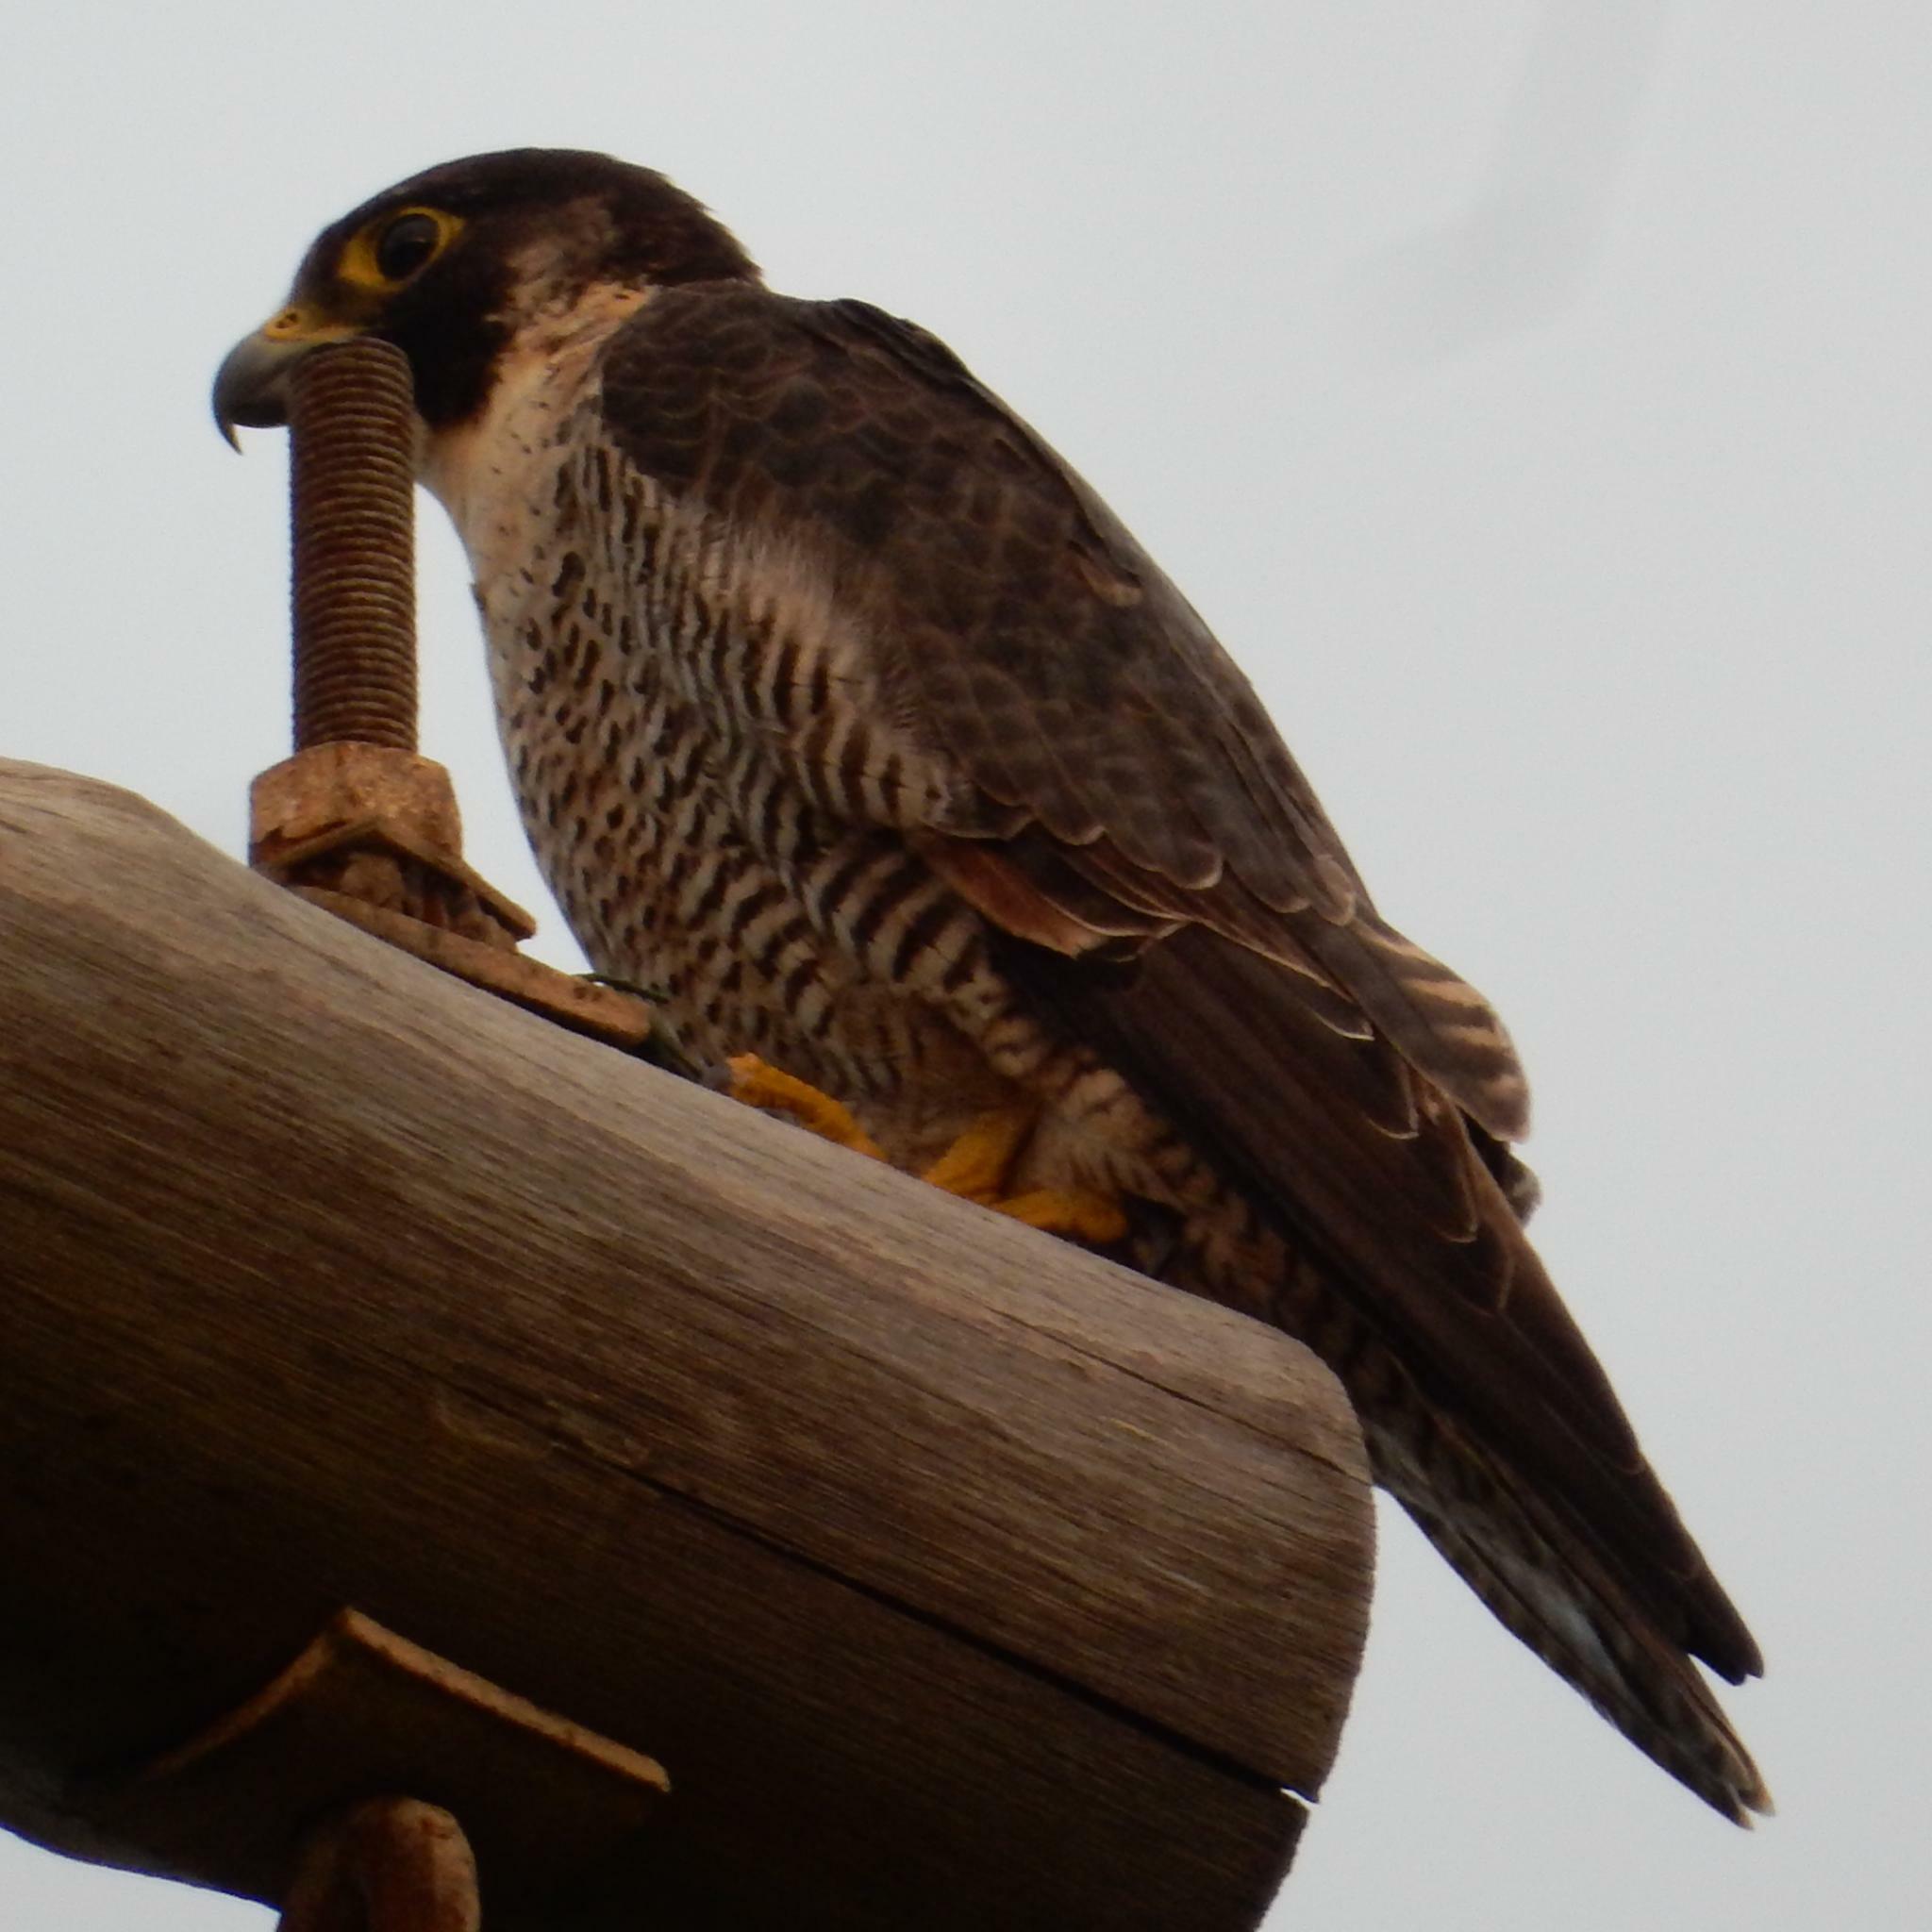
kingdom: Animalia
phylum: Chordata
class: Aves
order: Falconiformes
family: Falconidae
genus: Falco
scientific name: Falco peregrinus
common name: Peregrine falcon
